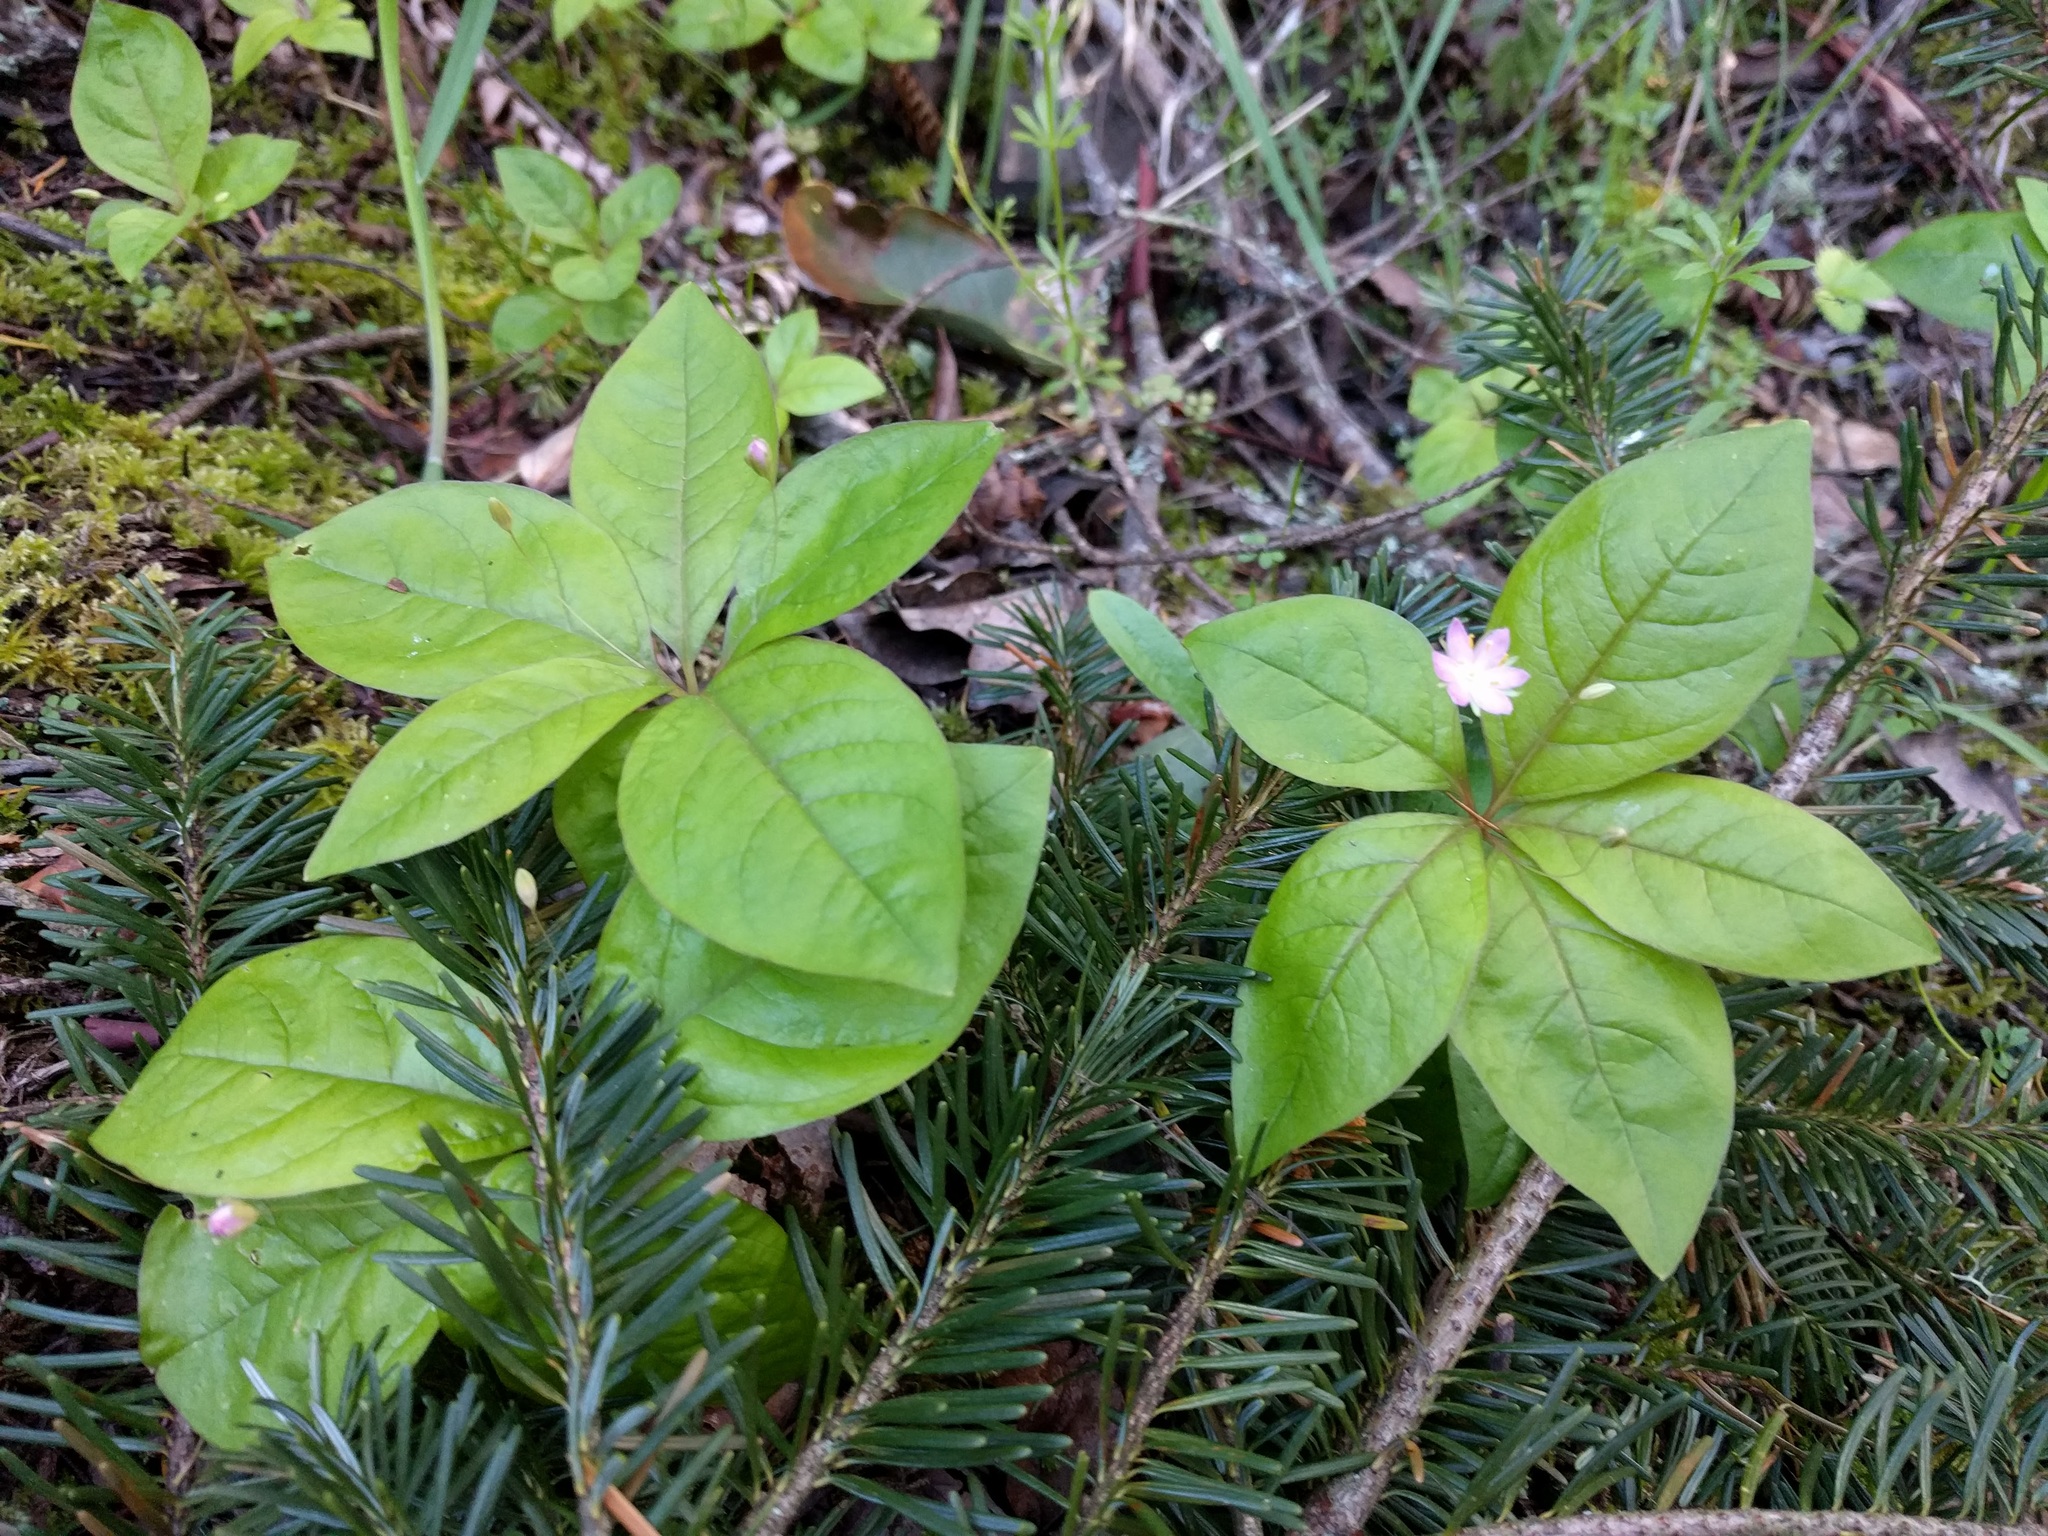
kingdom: Plantae
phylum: Tracheophyta
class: Magnoliopsida
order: Ericales
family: Primulaceae
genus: Lysimachia
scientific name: Lysimachia latifolia
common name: Pacific starflower
